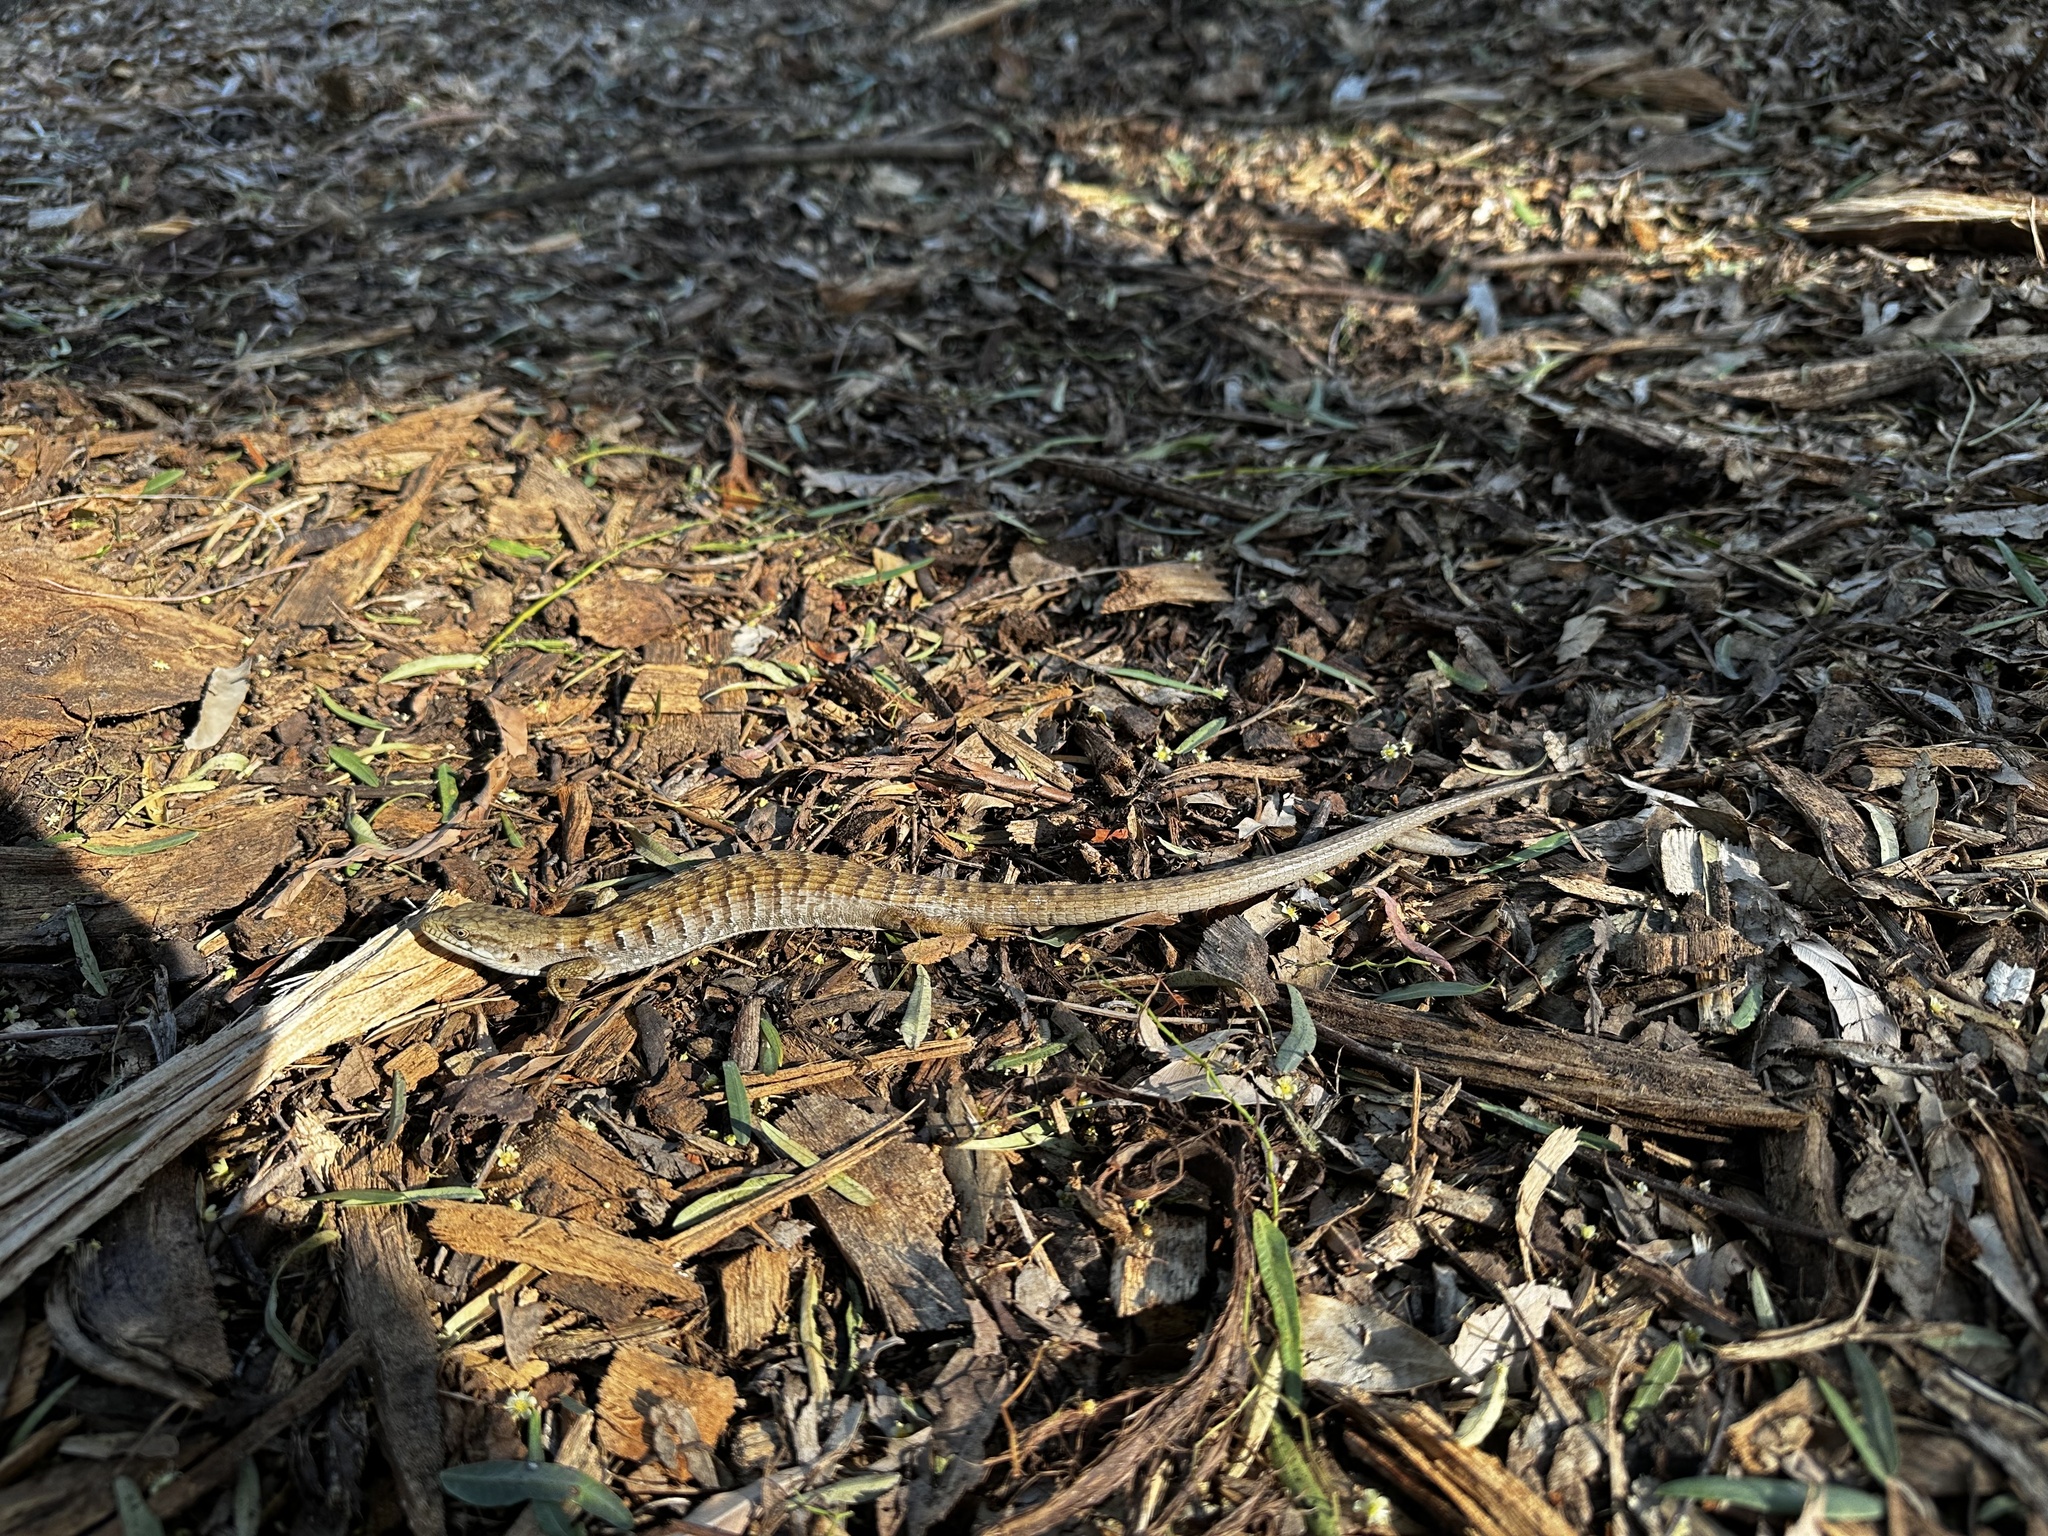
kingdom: Animalia
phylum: Chordata
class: Squamata
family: Anguidae
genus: Elgaria
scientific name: Elgaria multicarinata
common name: Southern alligator lizard
